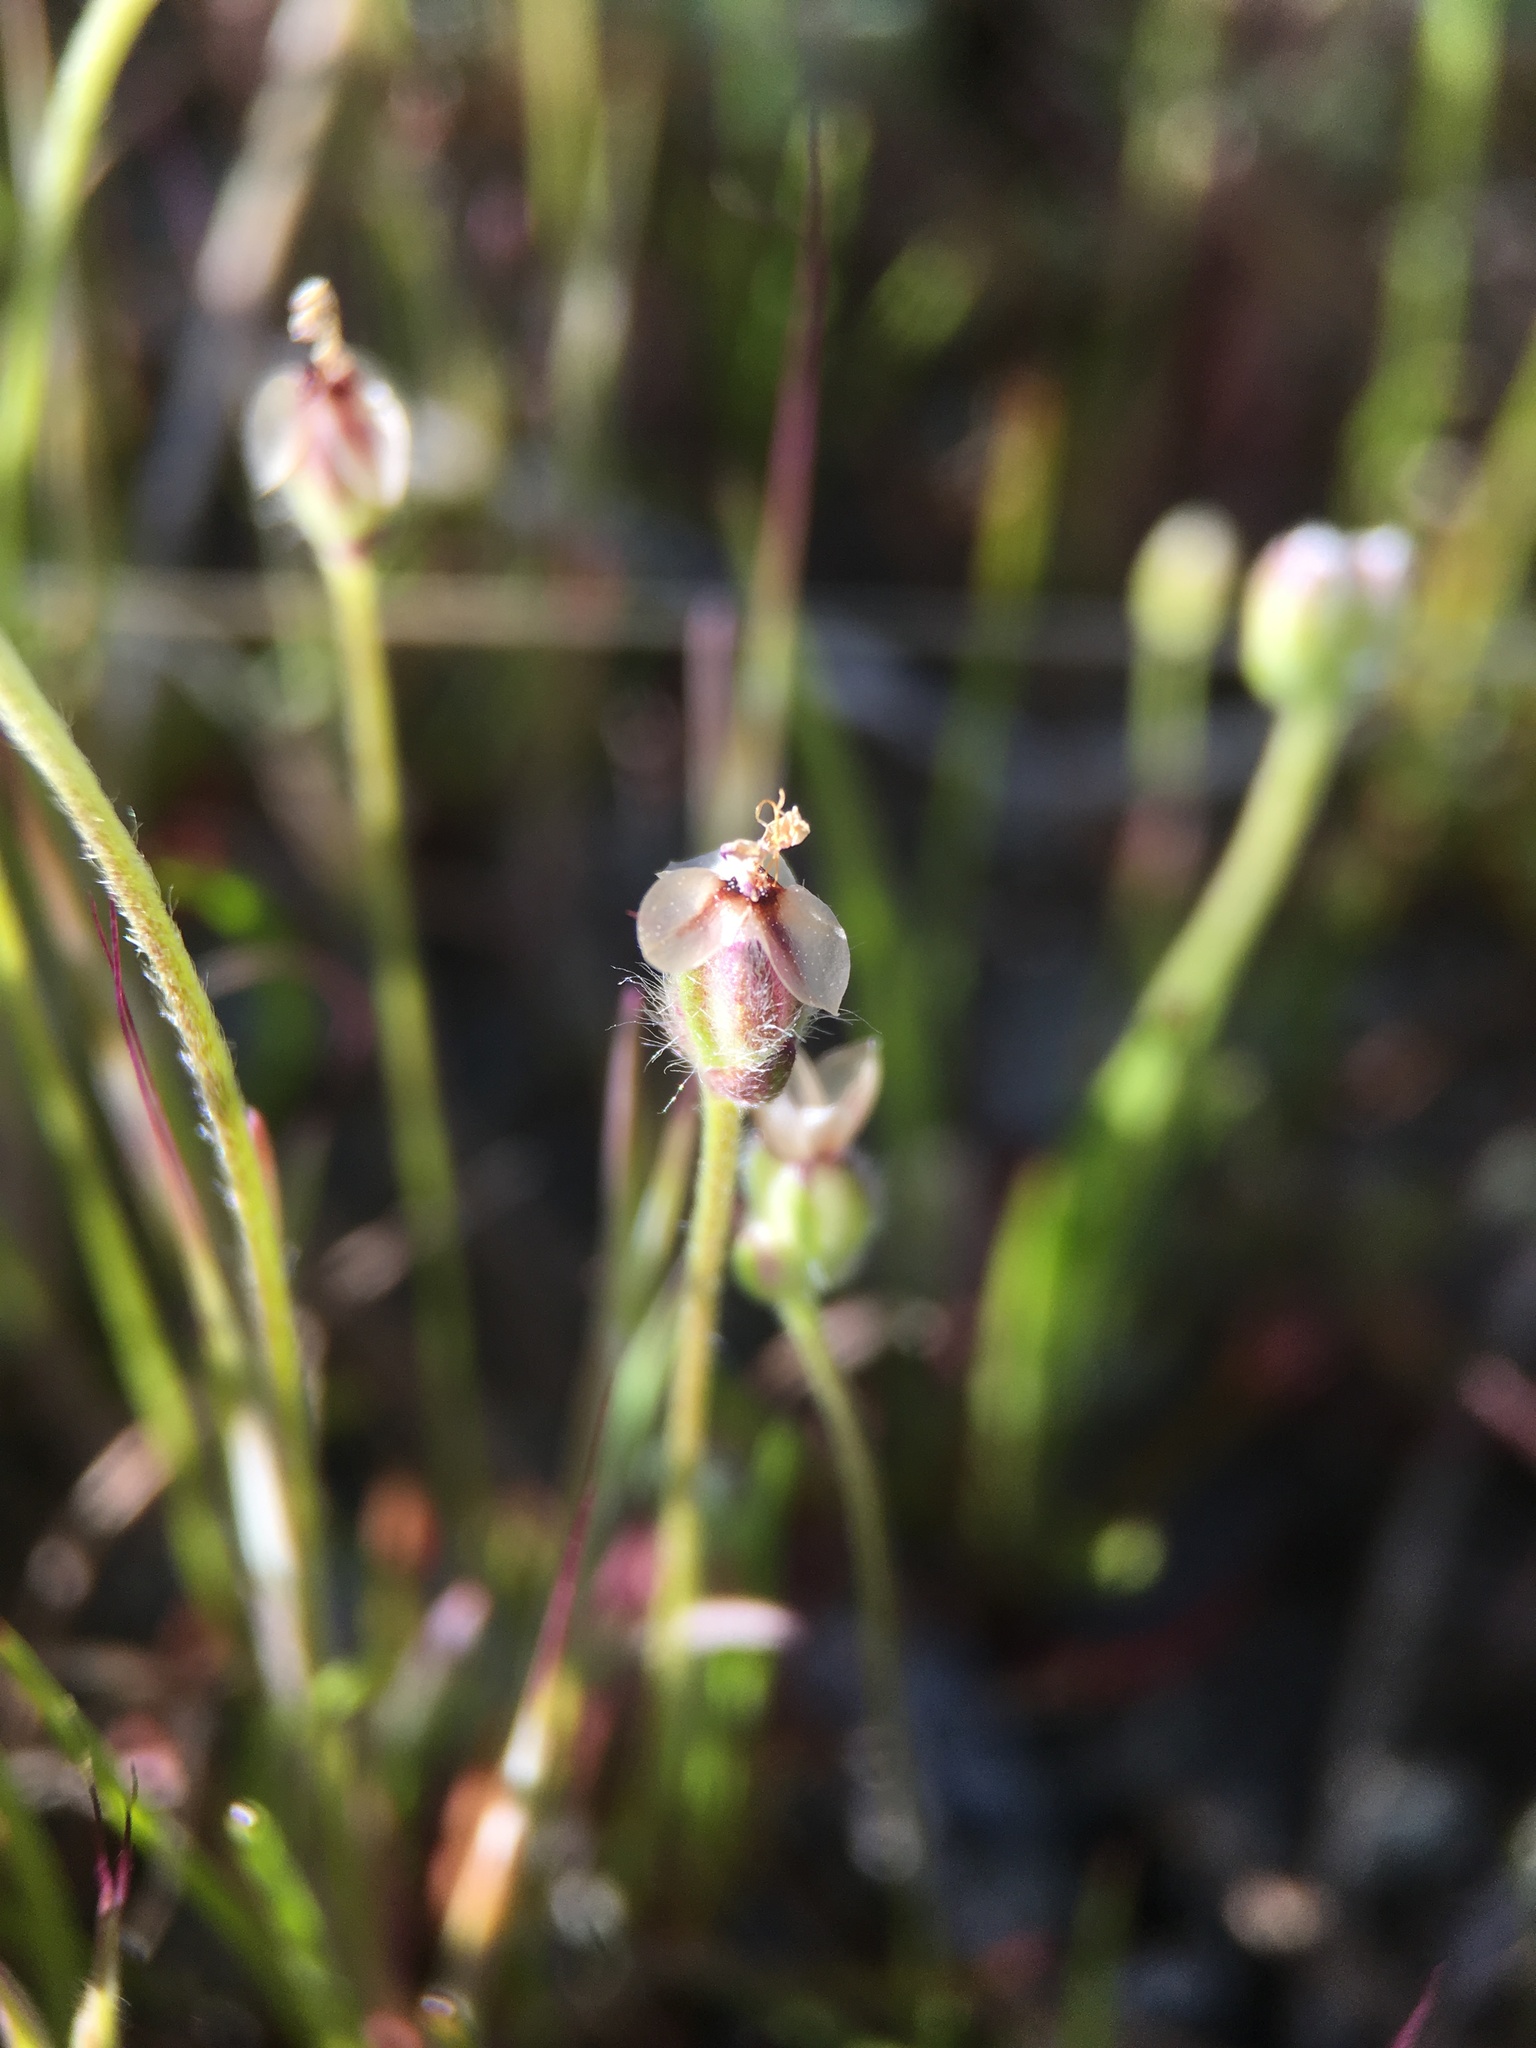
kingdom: Plantae
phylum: Tracheophyta
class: Magnoliopsida
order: Lamiales
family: Plantaginaceae
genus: Plantago
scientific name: Plantago erecta
